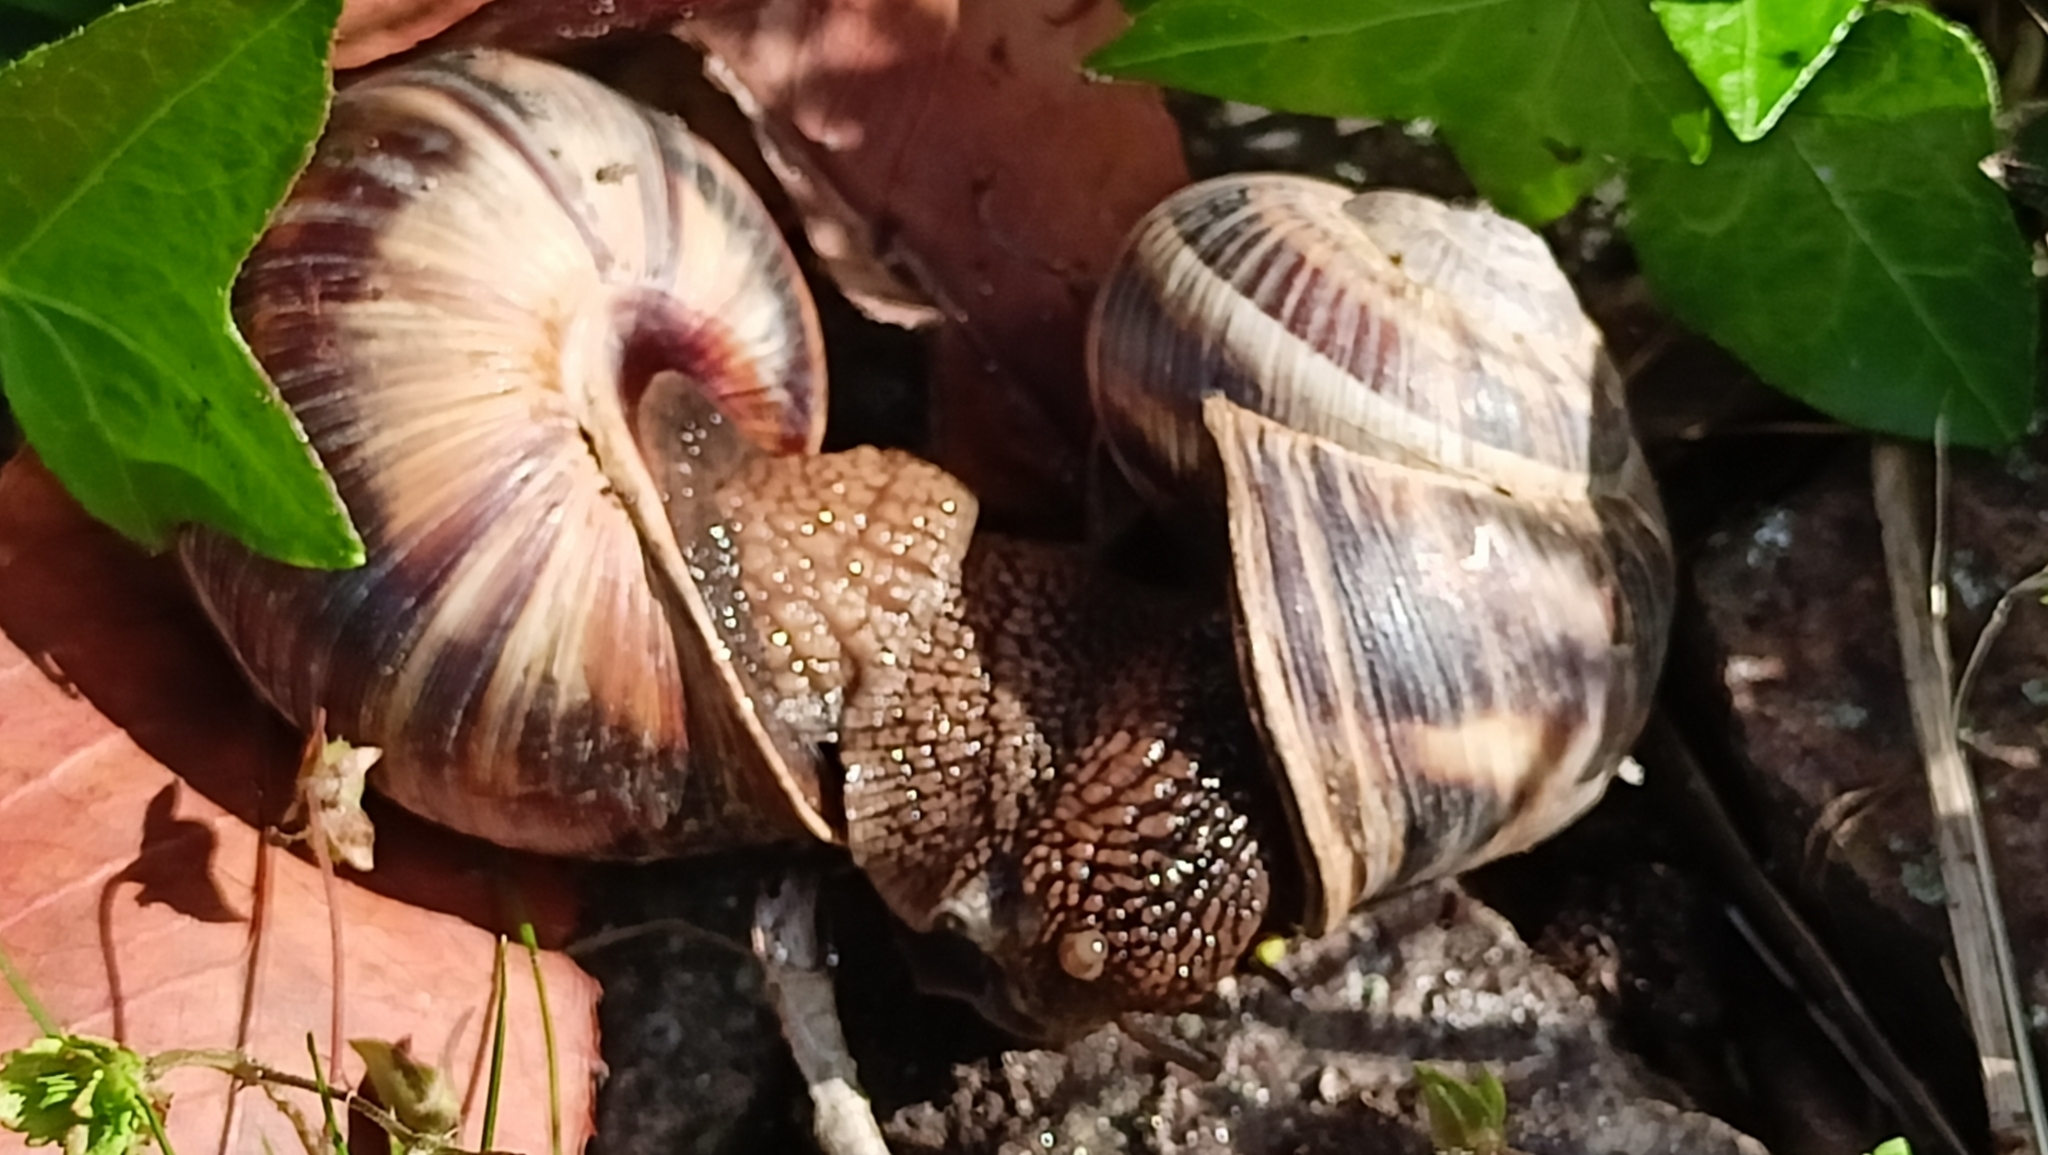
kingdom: Animalia
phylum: Mollusca
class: Gastropoda
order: Stylommatophora
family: Helicidae
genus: Helix
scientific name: Helix lucorum
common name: Turkish snail
